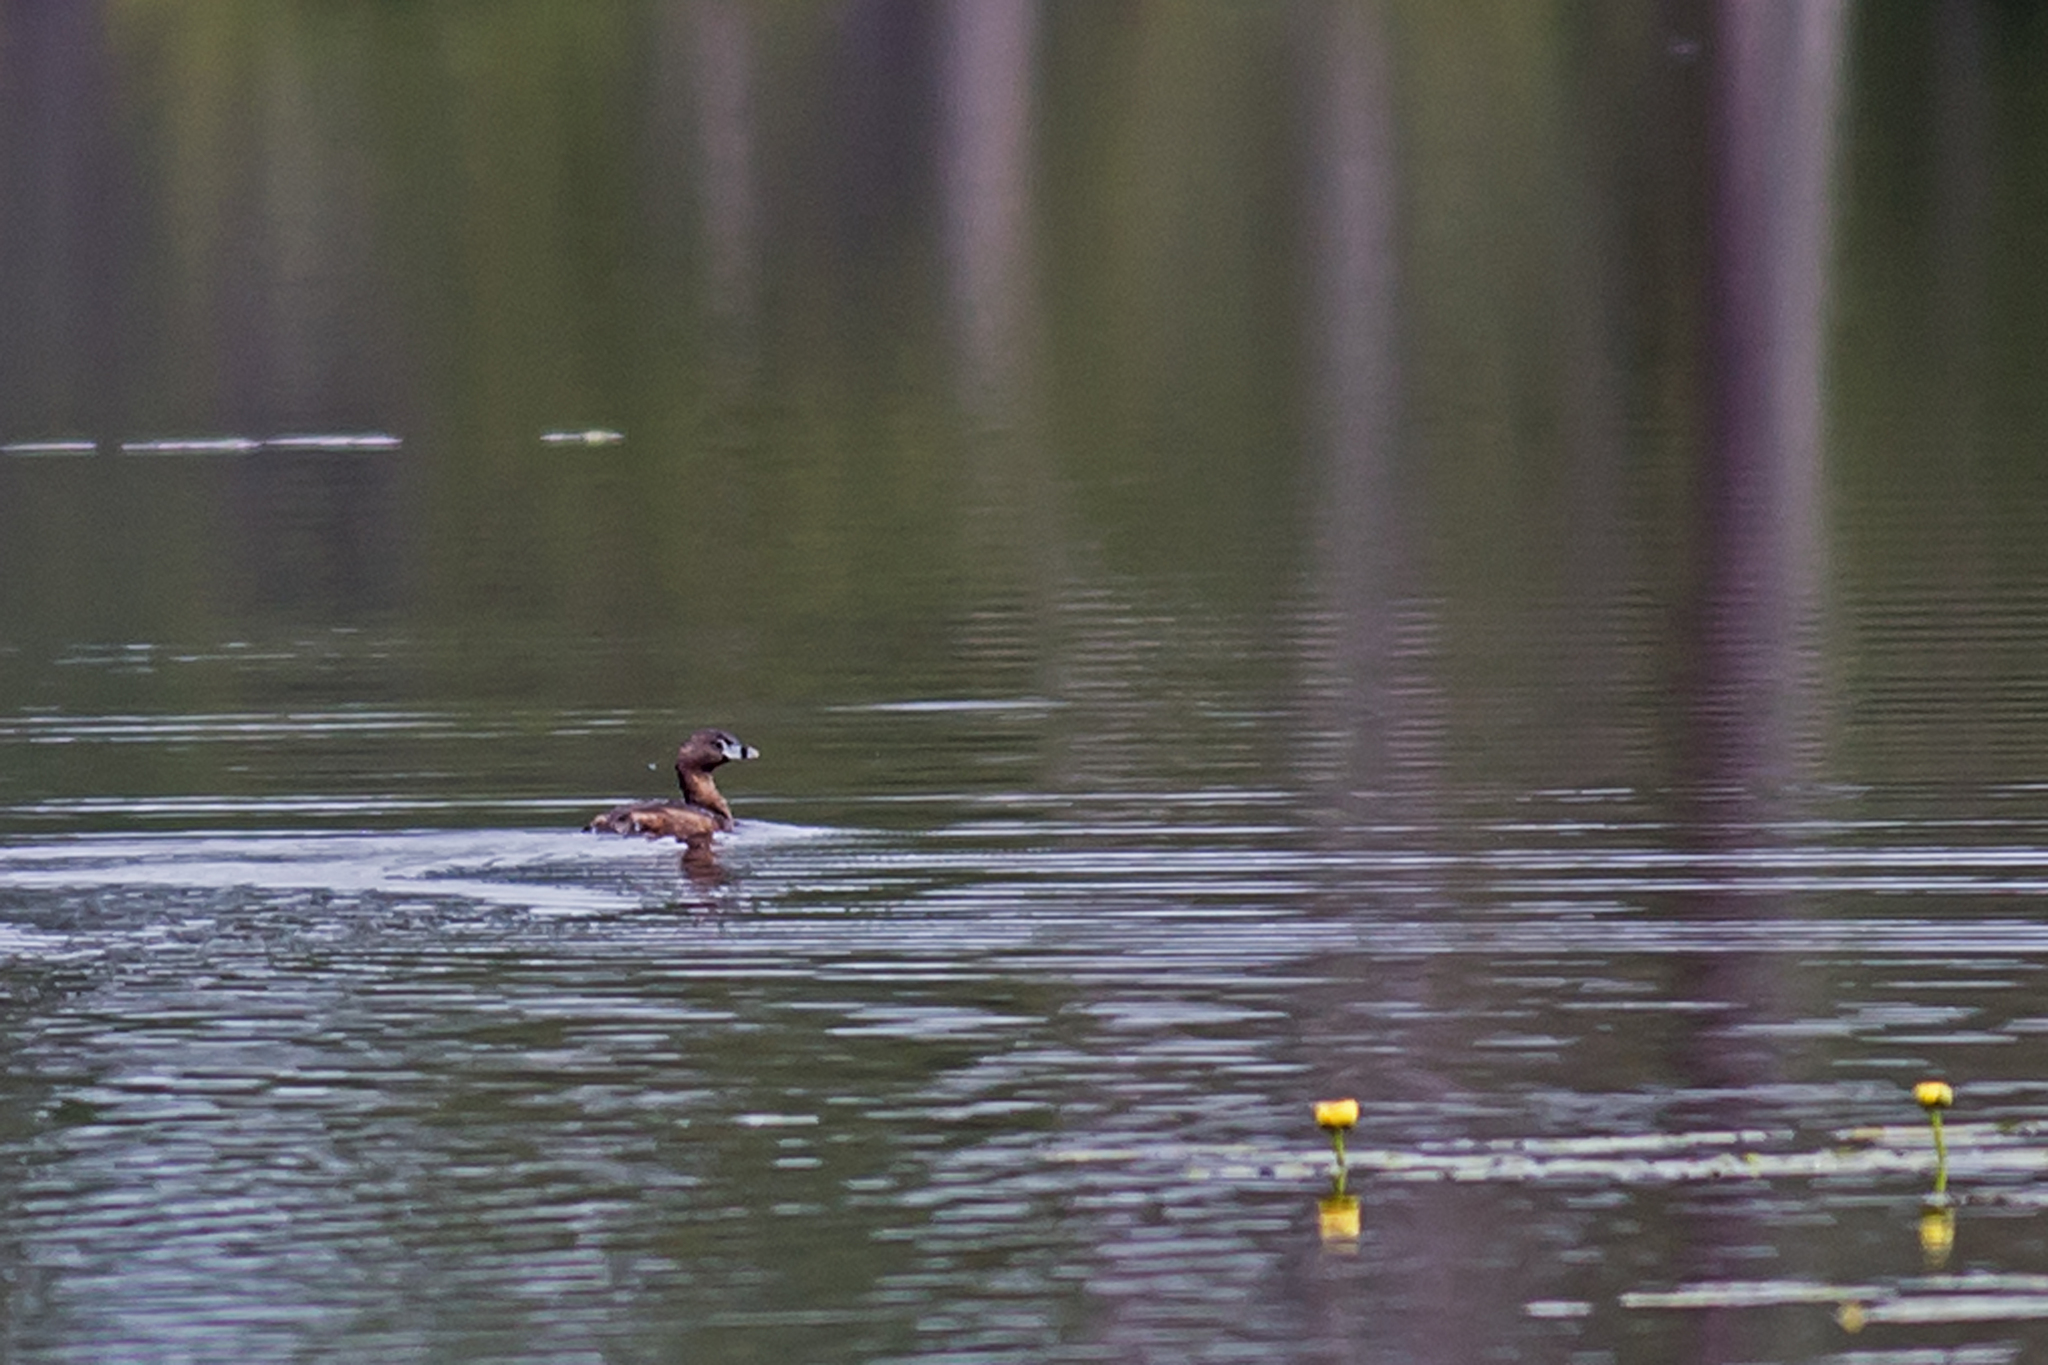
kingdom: Animalia
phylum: Chordata
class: Aves
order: Podicipediformes
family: Podicipedidae
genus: Podilymbus
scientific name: Podilymbus podiceps
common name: Pied-billed grebe
